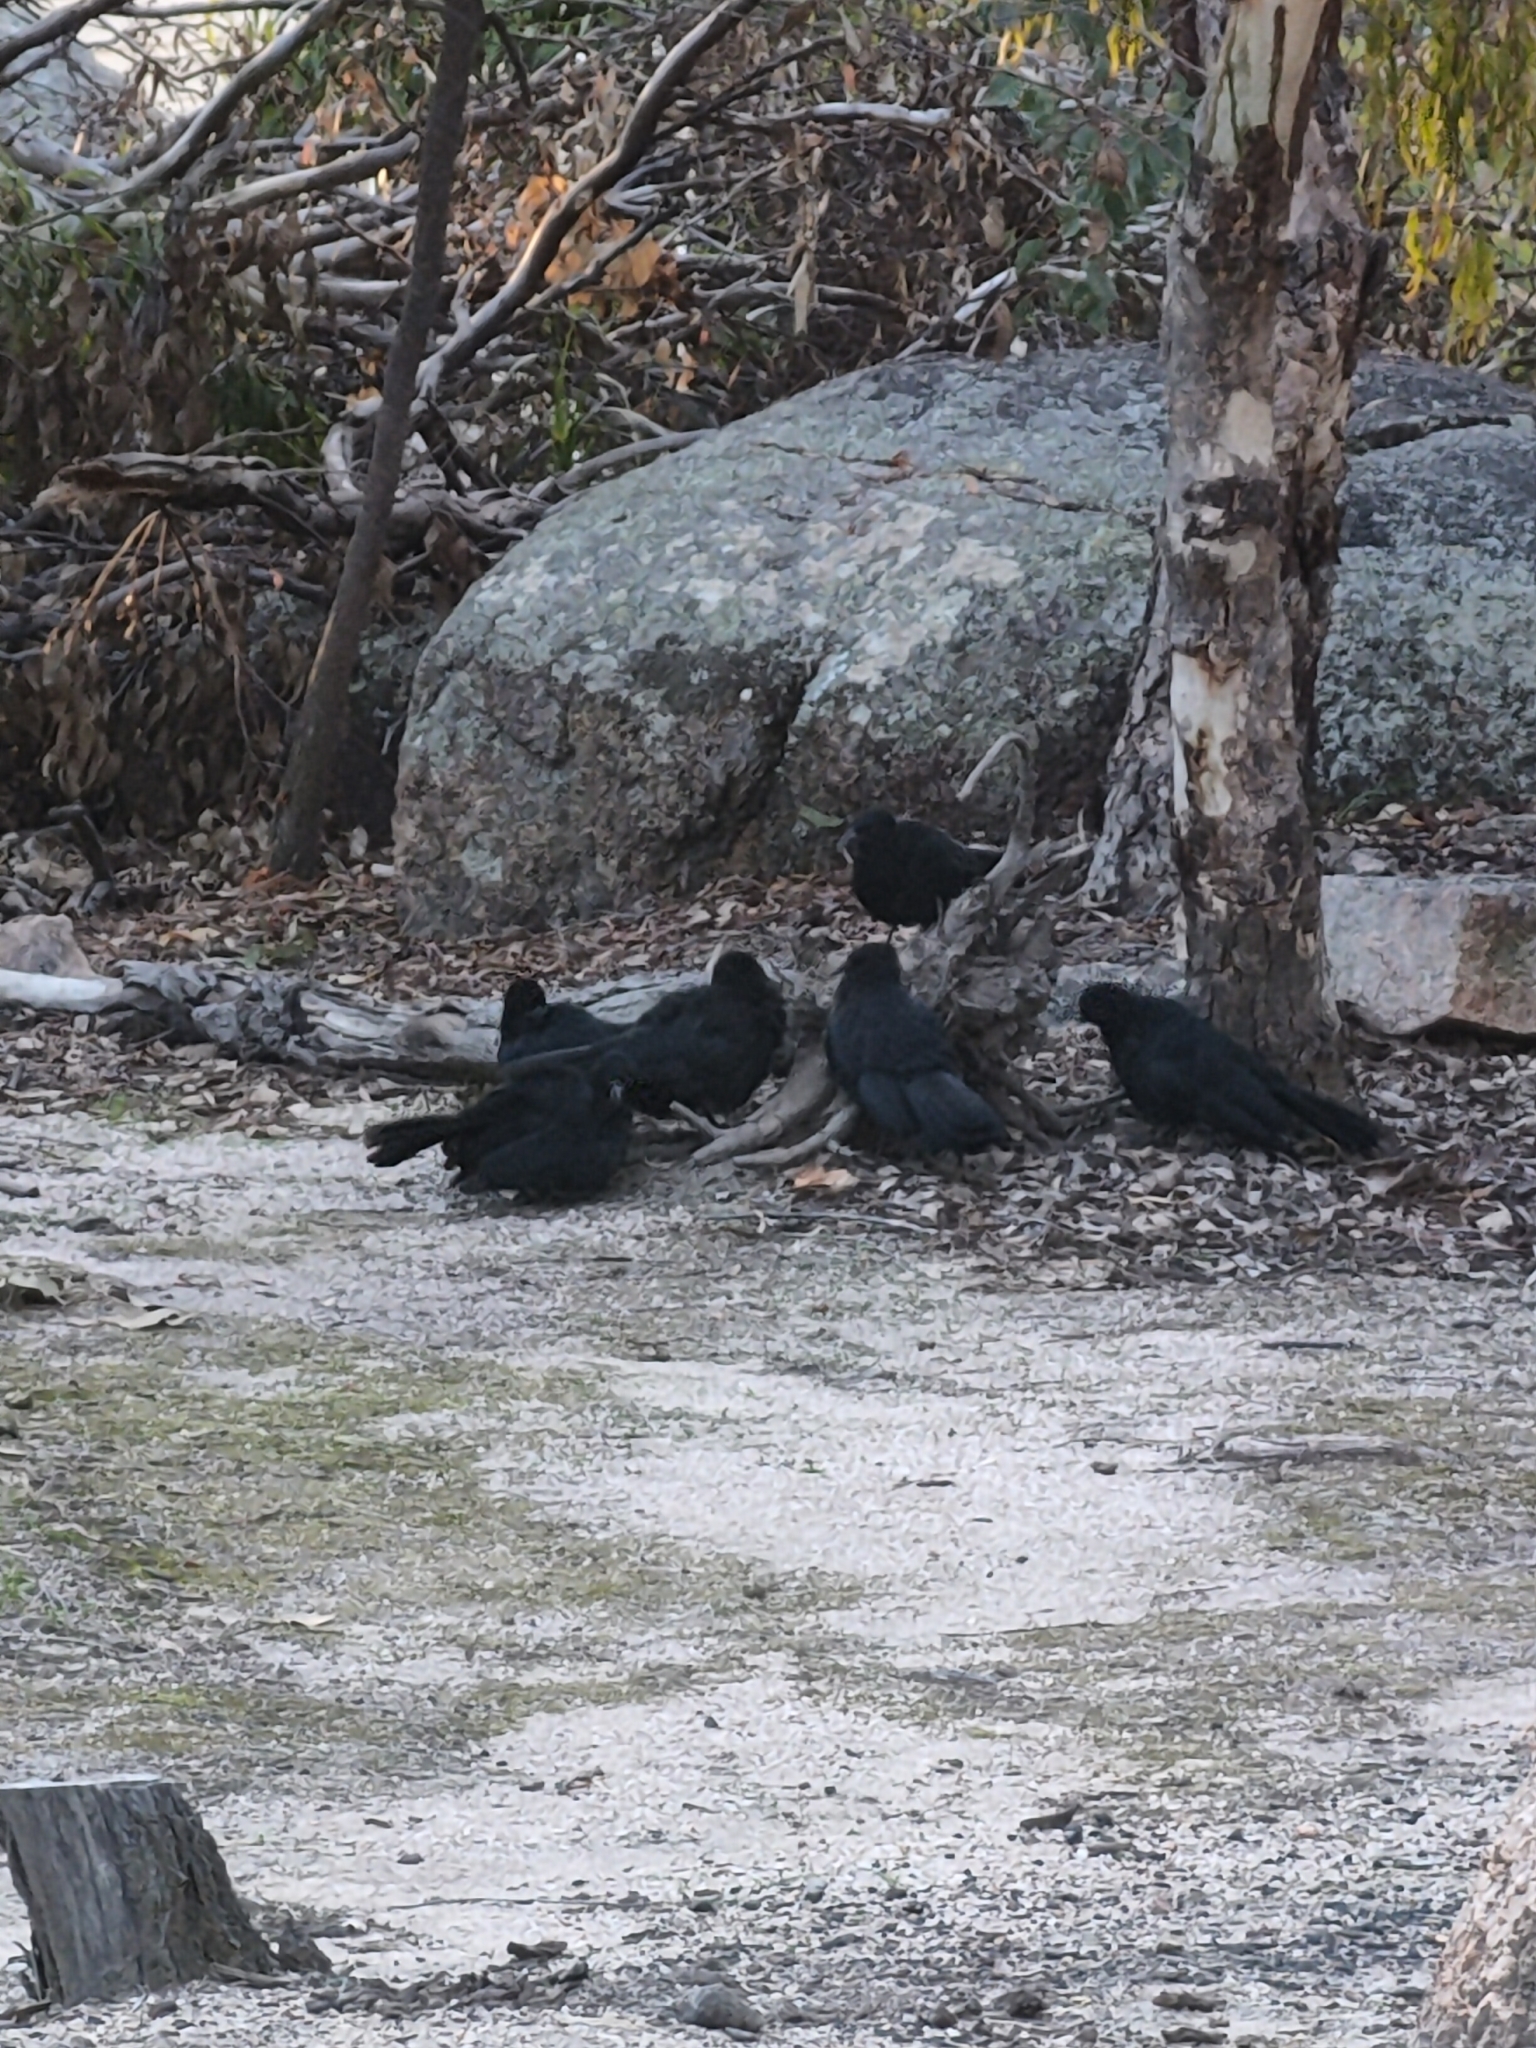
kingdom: Animalia
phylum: Chordata
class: Aves
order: Passeriformes
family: Corcoracidae
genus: Corcorax
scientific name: Corcorax melanoramphos
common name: White-winged chough
